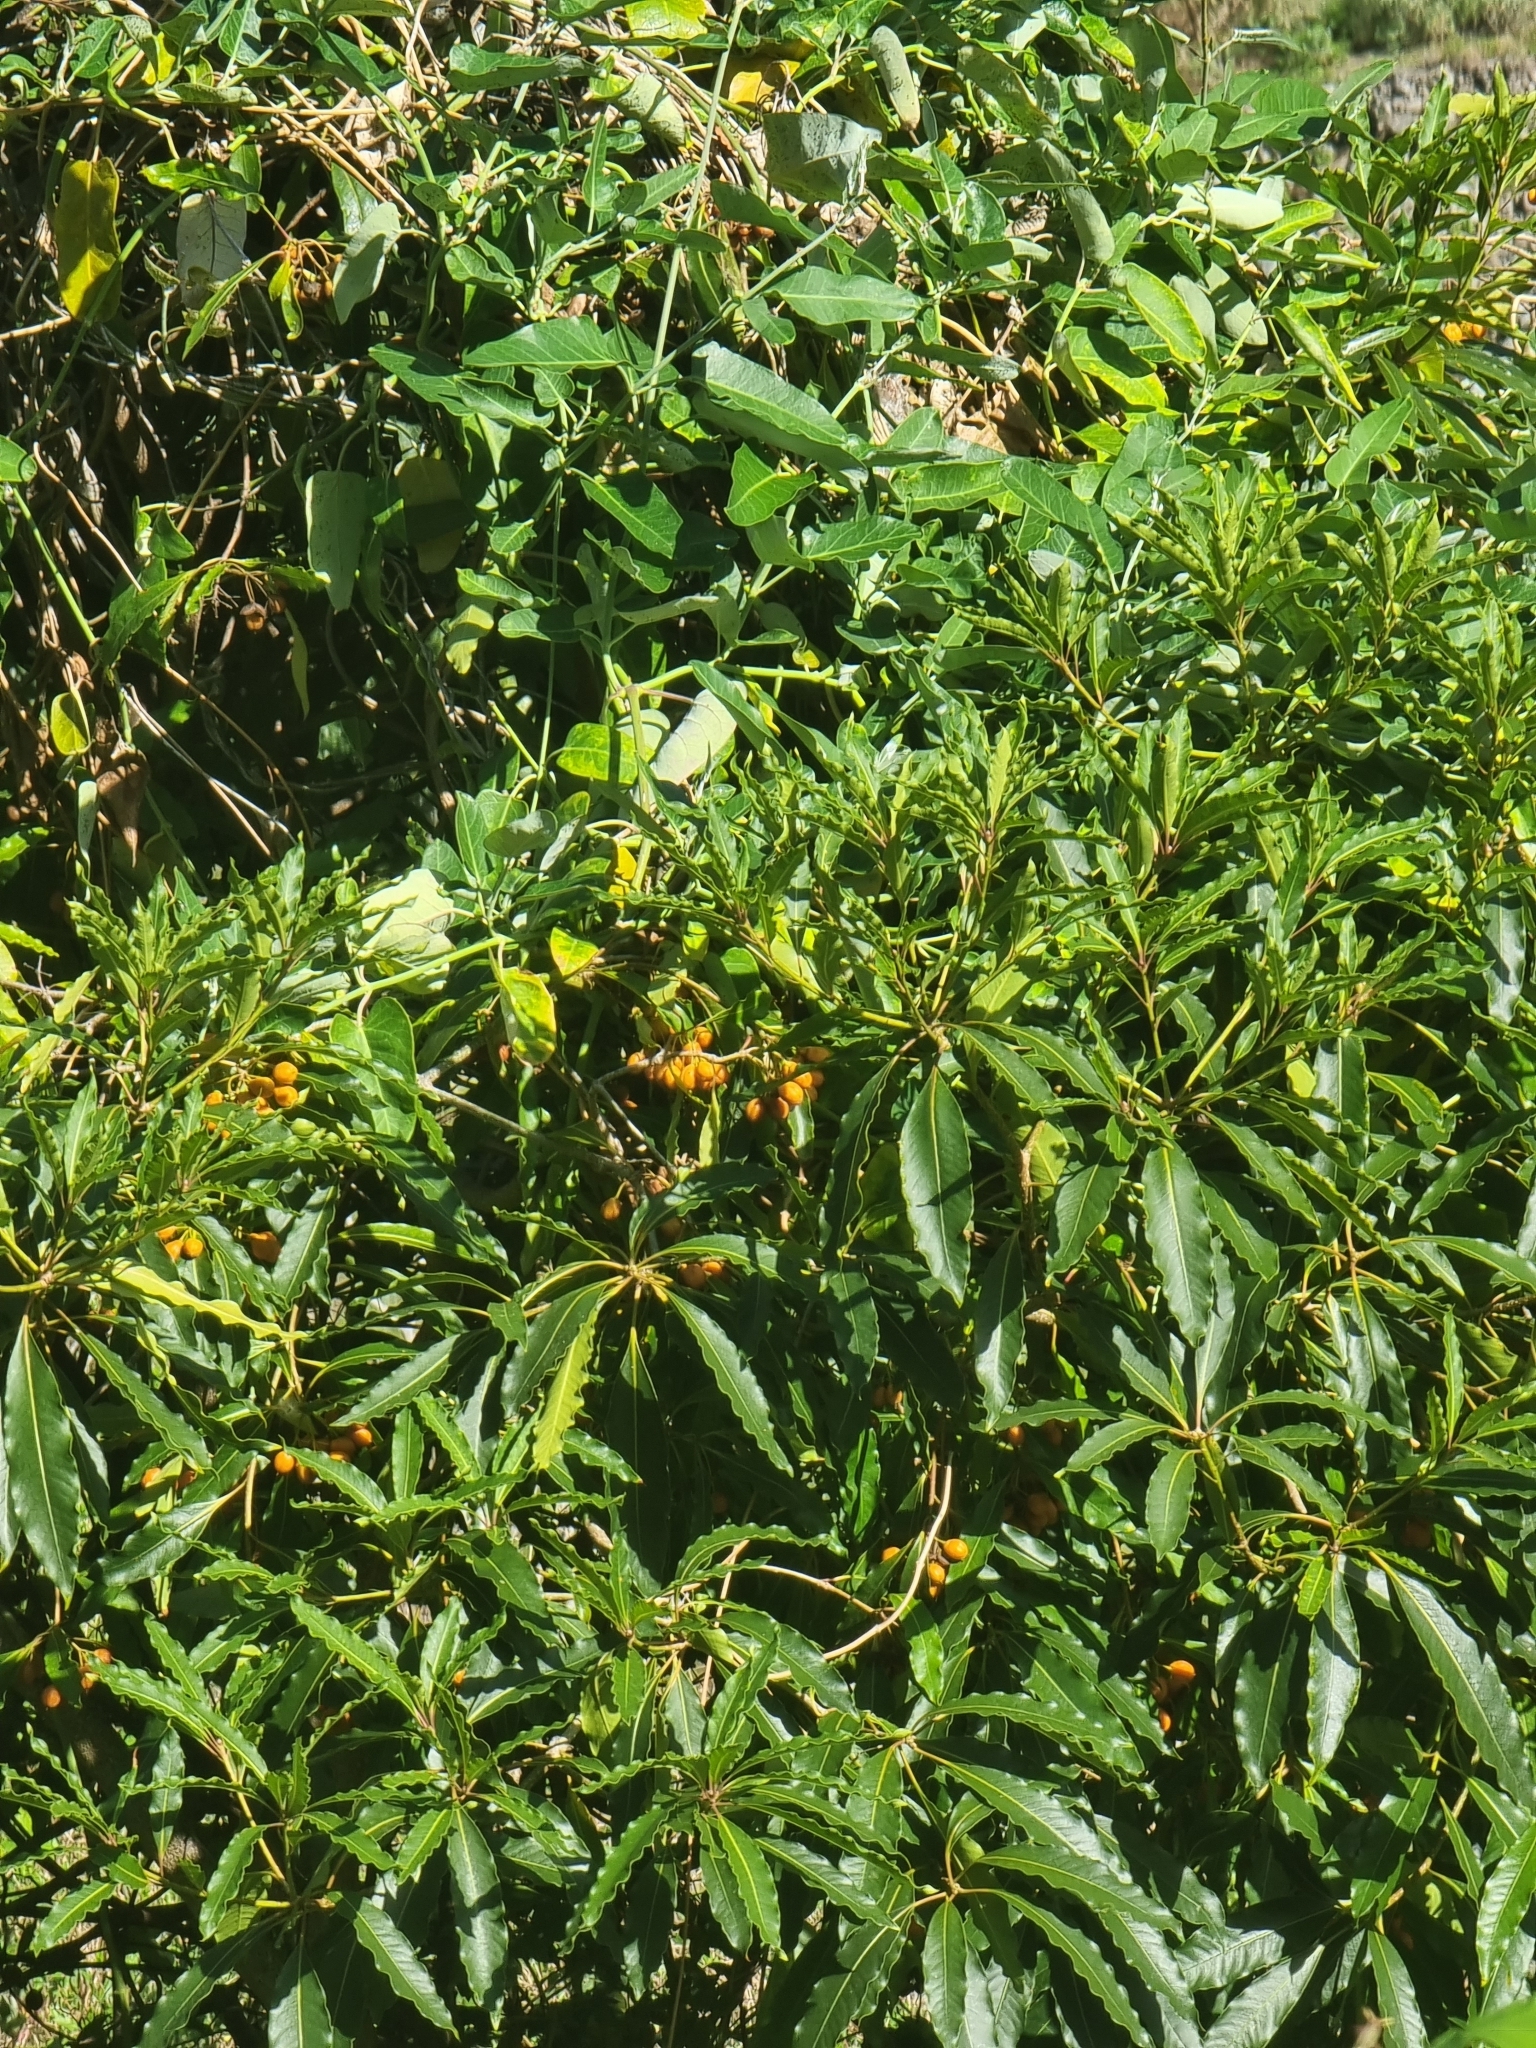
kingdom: Plantae
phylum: Tracheophyta
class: Magnoliopsida
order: Apiales
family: Pittosporaceae
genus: Pittosporum
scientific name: Pittosporum undulatum
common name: Australian cheesewood
